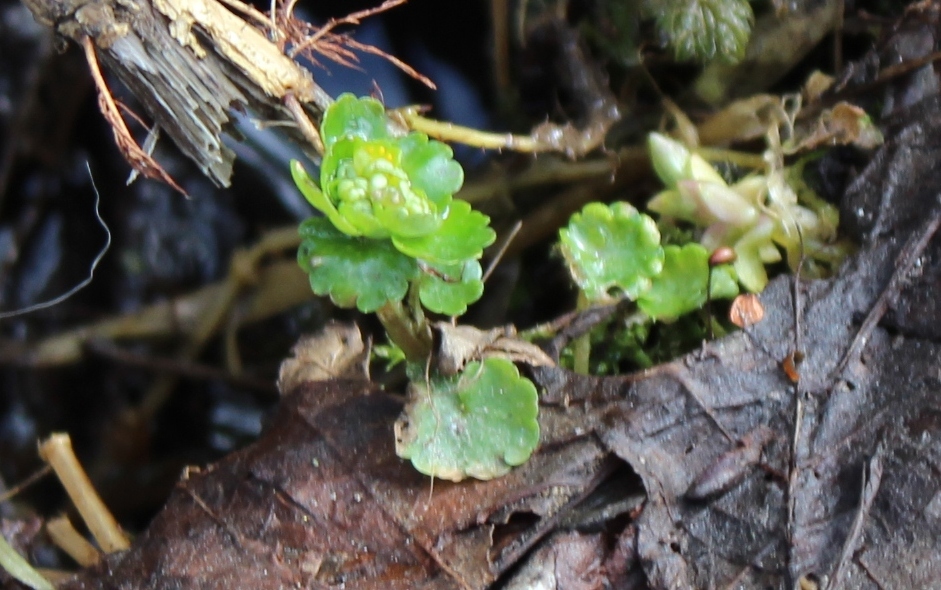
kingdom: Plantae
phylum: Tracheophyta
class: Magnoliopsida
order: Saxifragales
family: Saxifragaceae
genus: Chrysosplenium
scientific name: Chrysosplenium alternifolium
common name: Alternate-leaved golden-saxifrage
